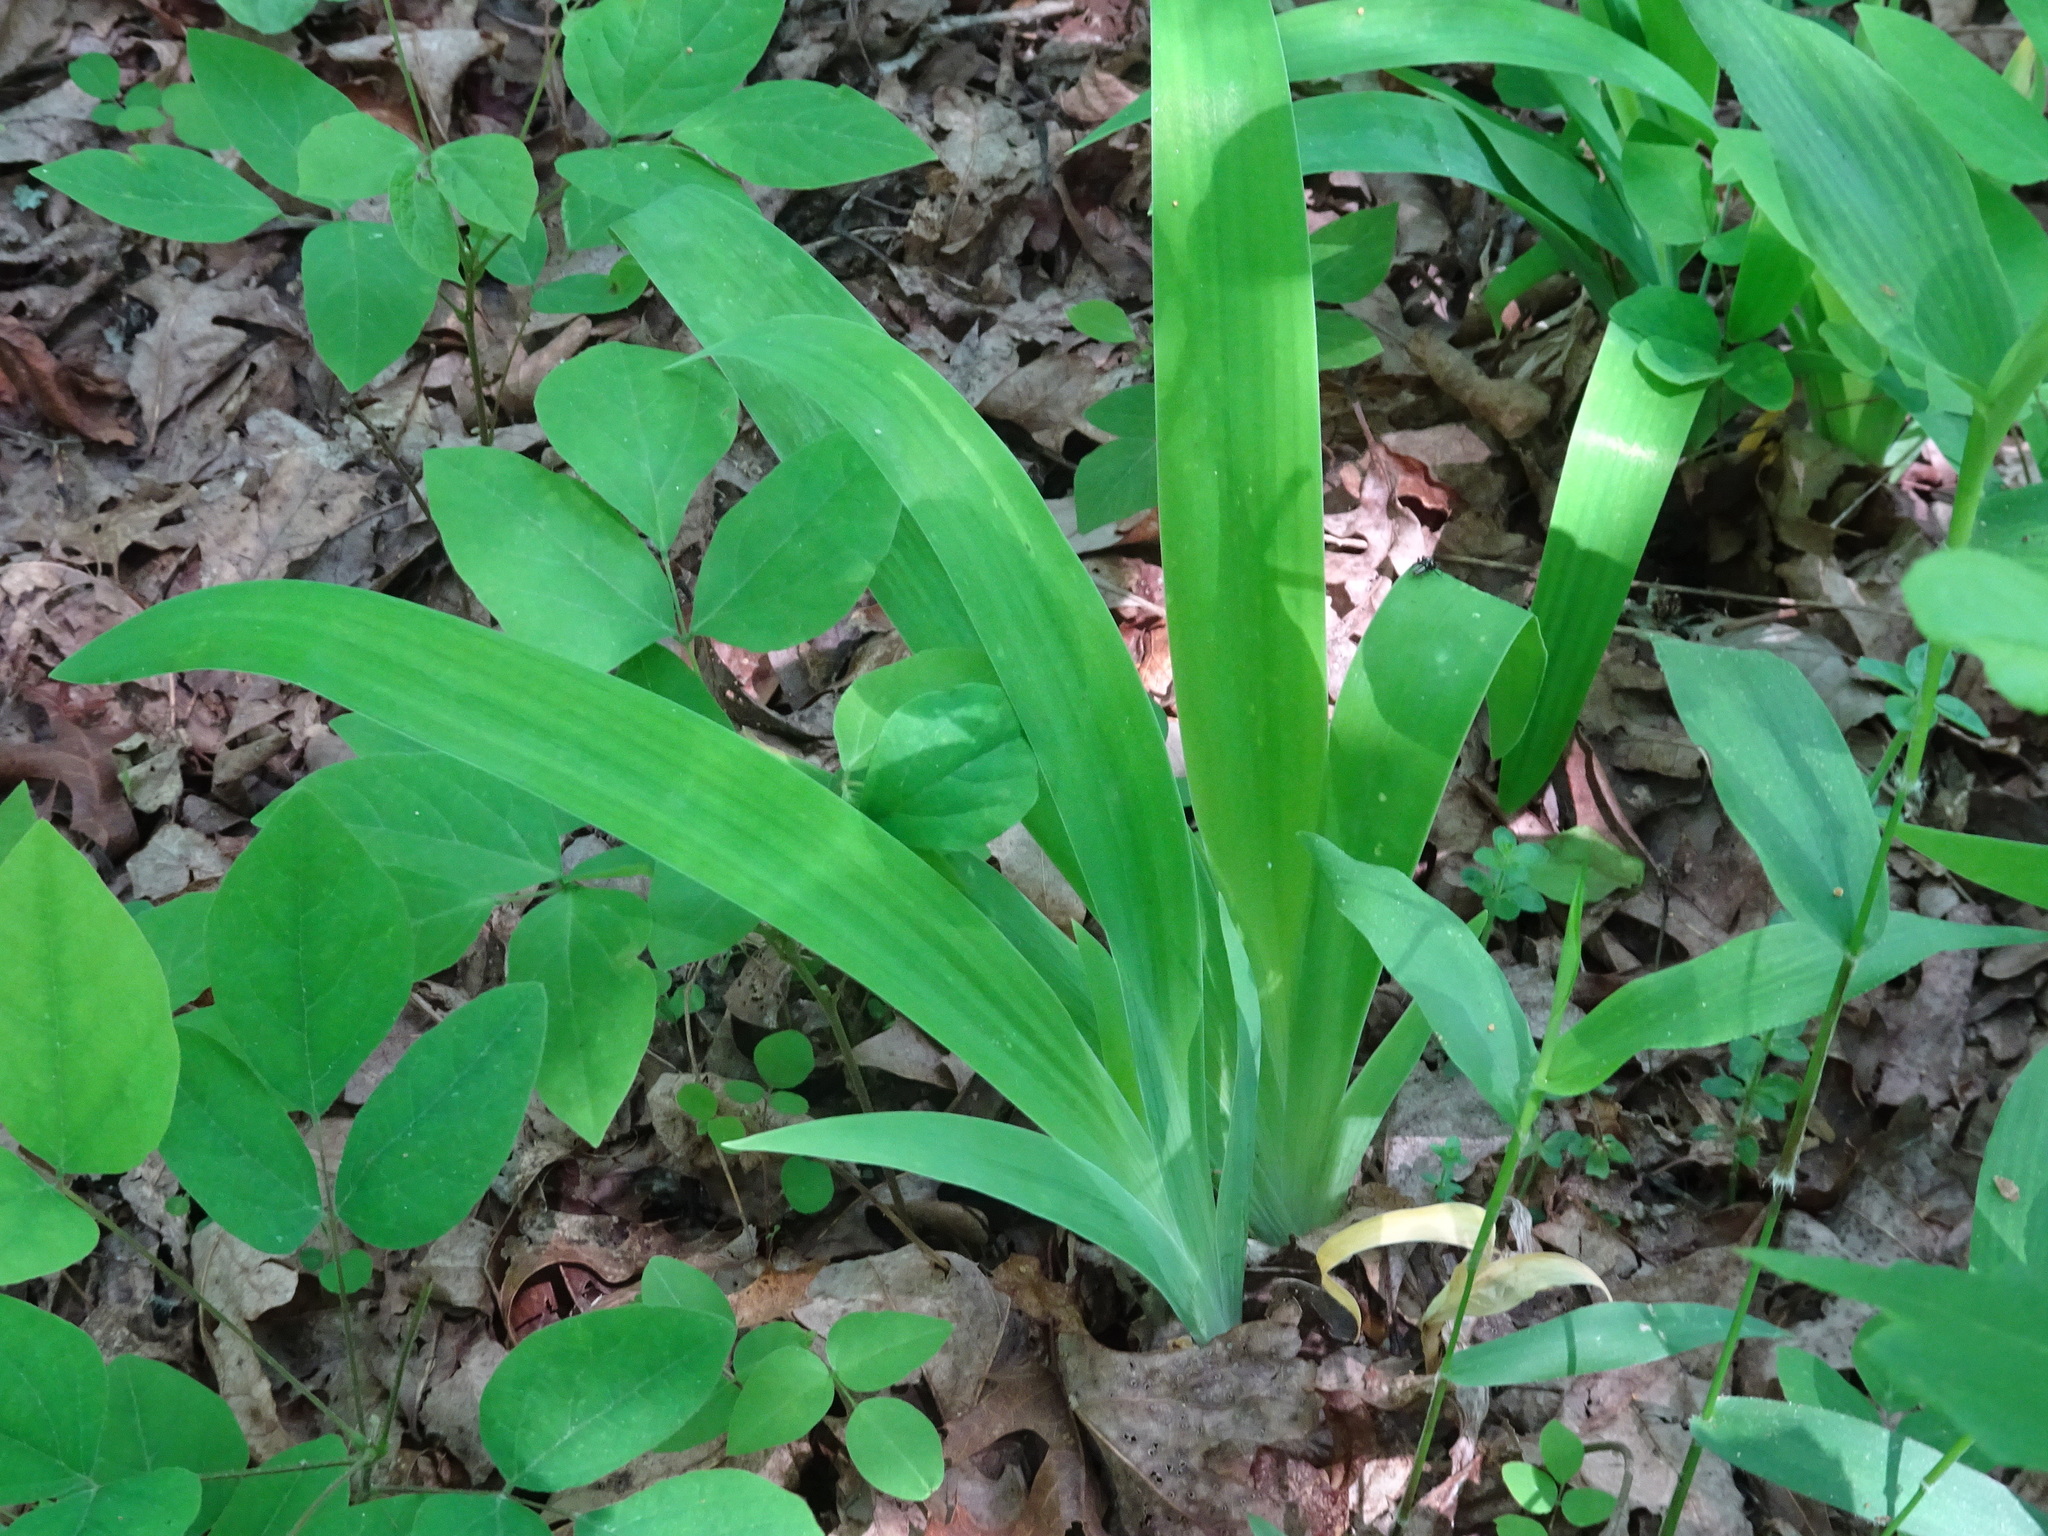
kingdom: Plantae
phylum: Tracheophyta
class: Liliopsida
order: Asparagales
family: Iridaceae
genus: Iris
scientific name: Iris cristata
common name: Crested iris
